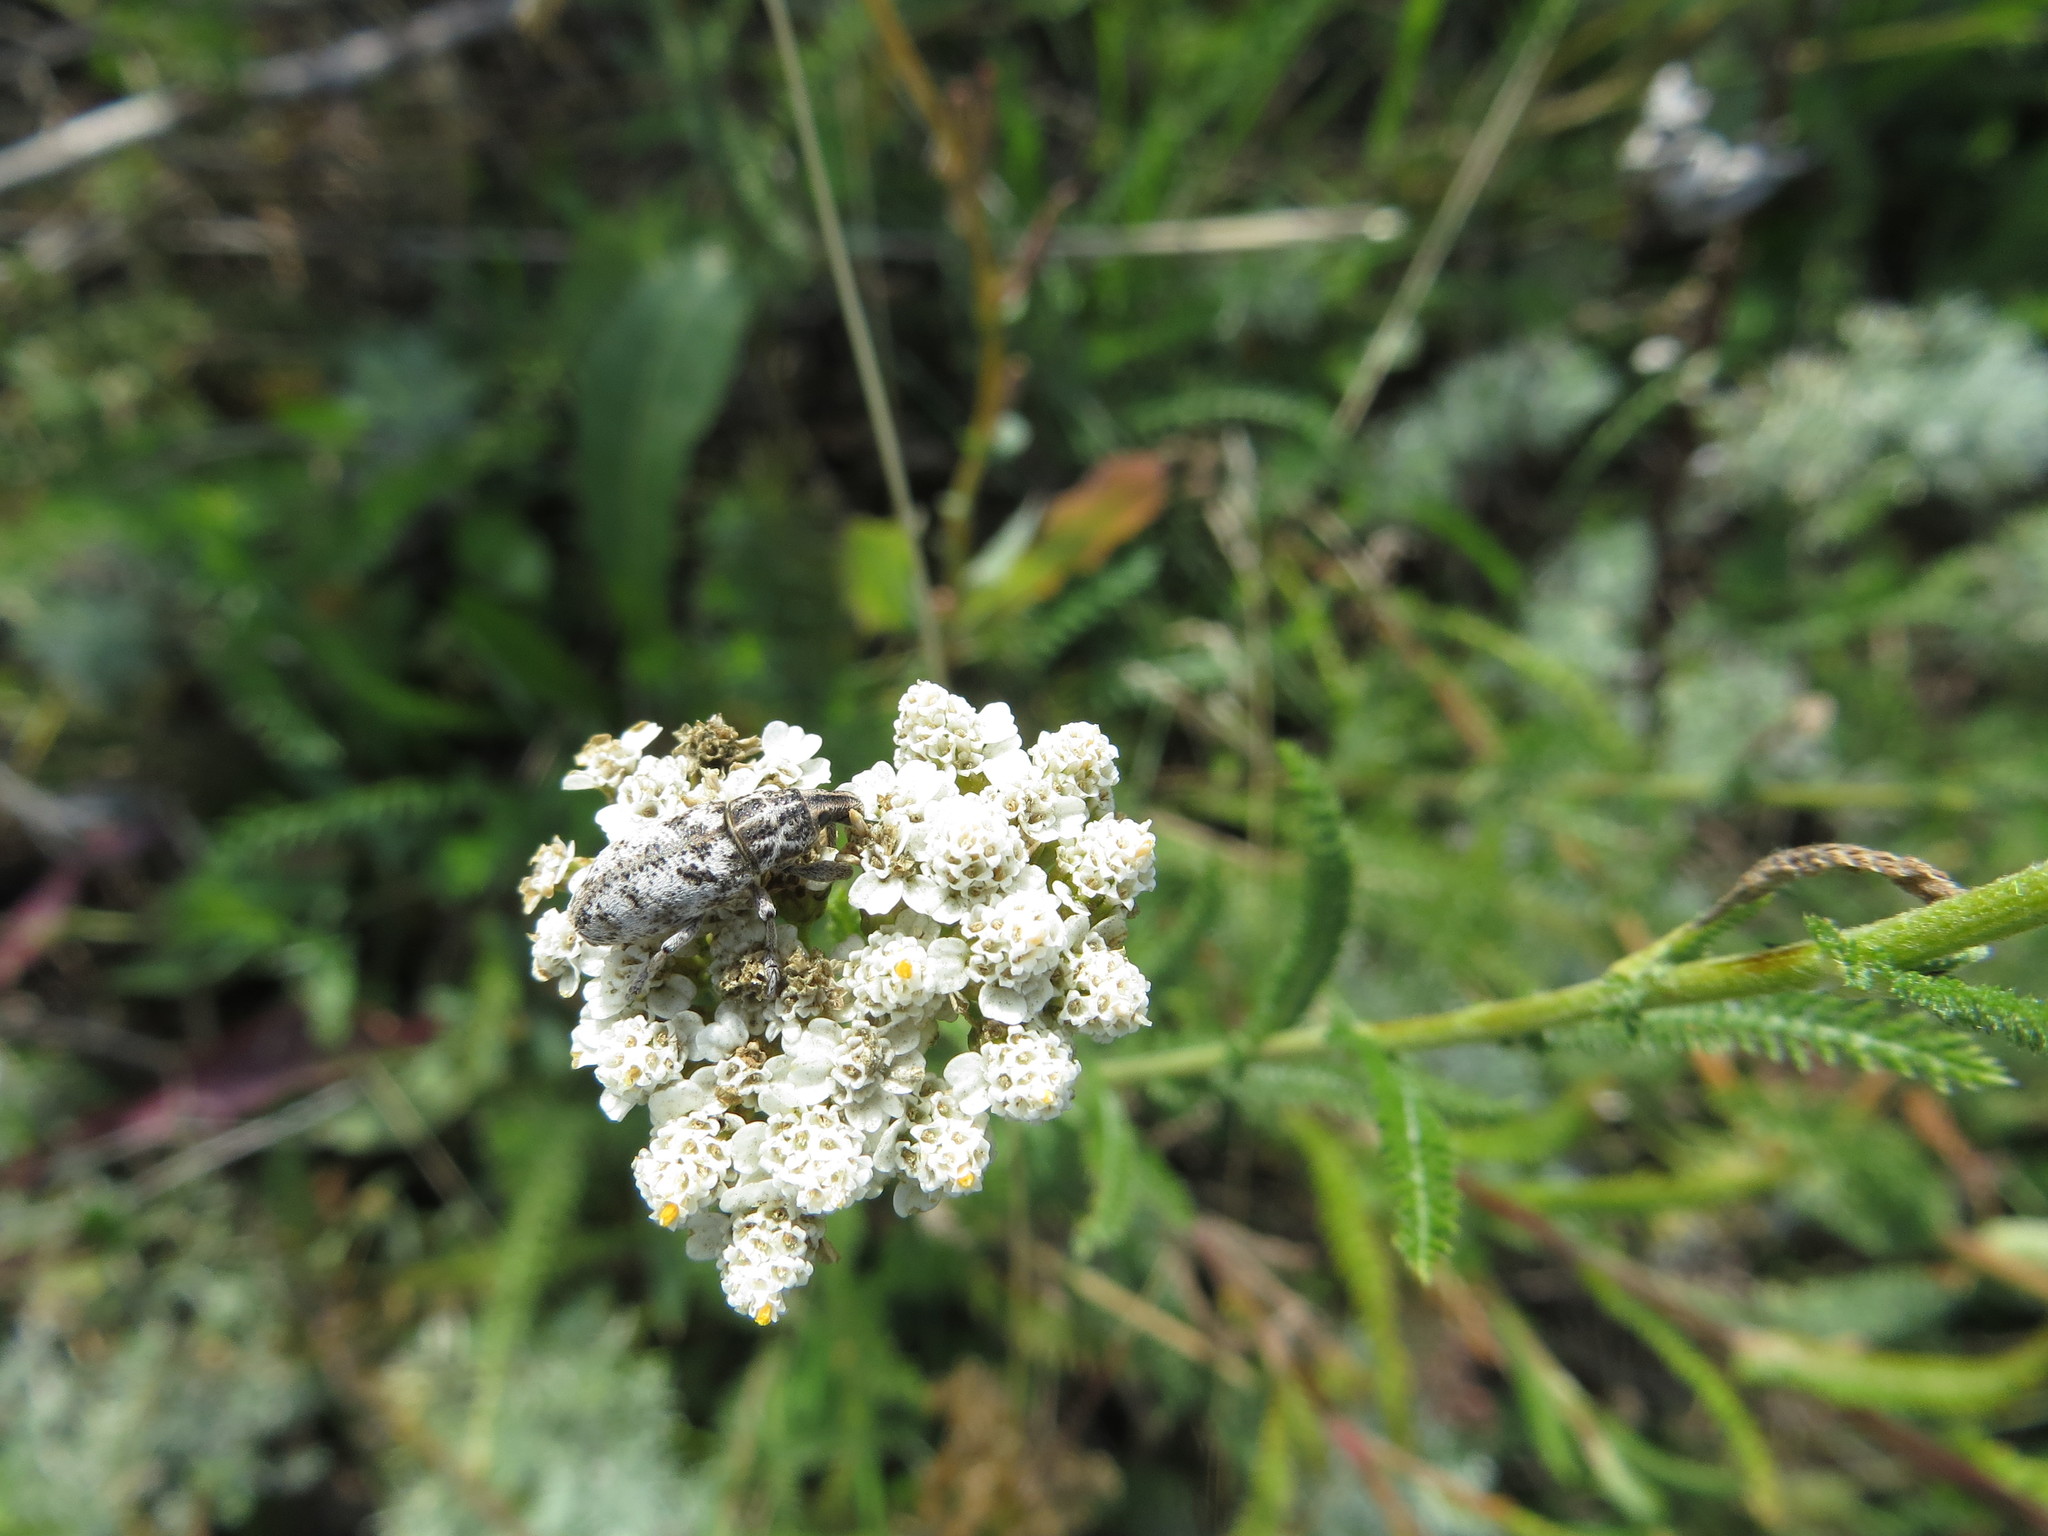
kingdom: Animalia
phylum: Arthropoda
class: Insecta
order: Coleoptera
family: Curculionidae
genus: Cyphocleonus
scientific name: Cyphocleonus dealbatus
